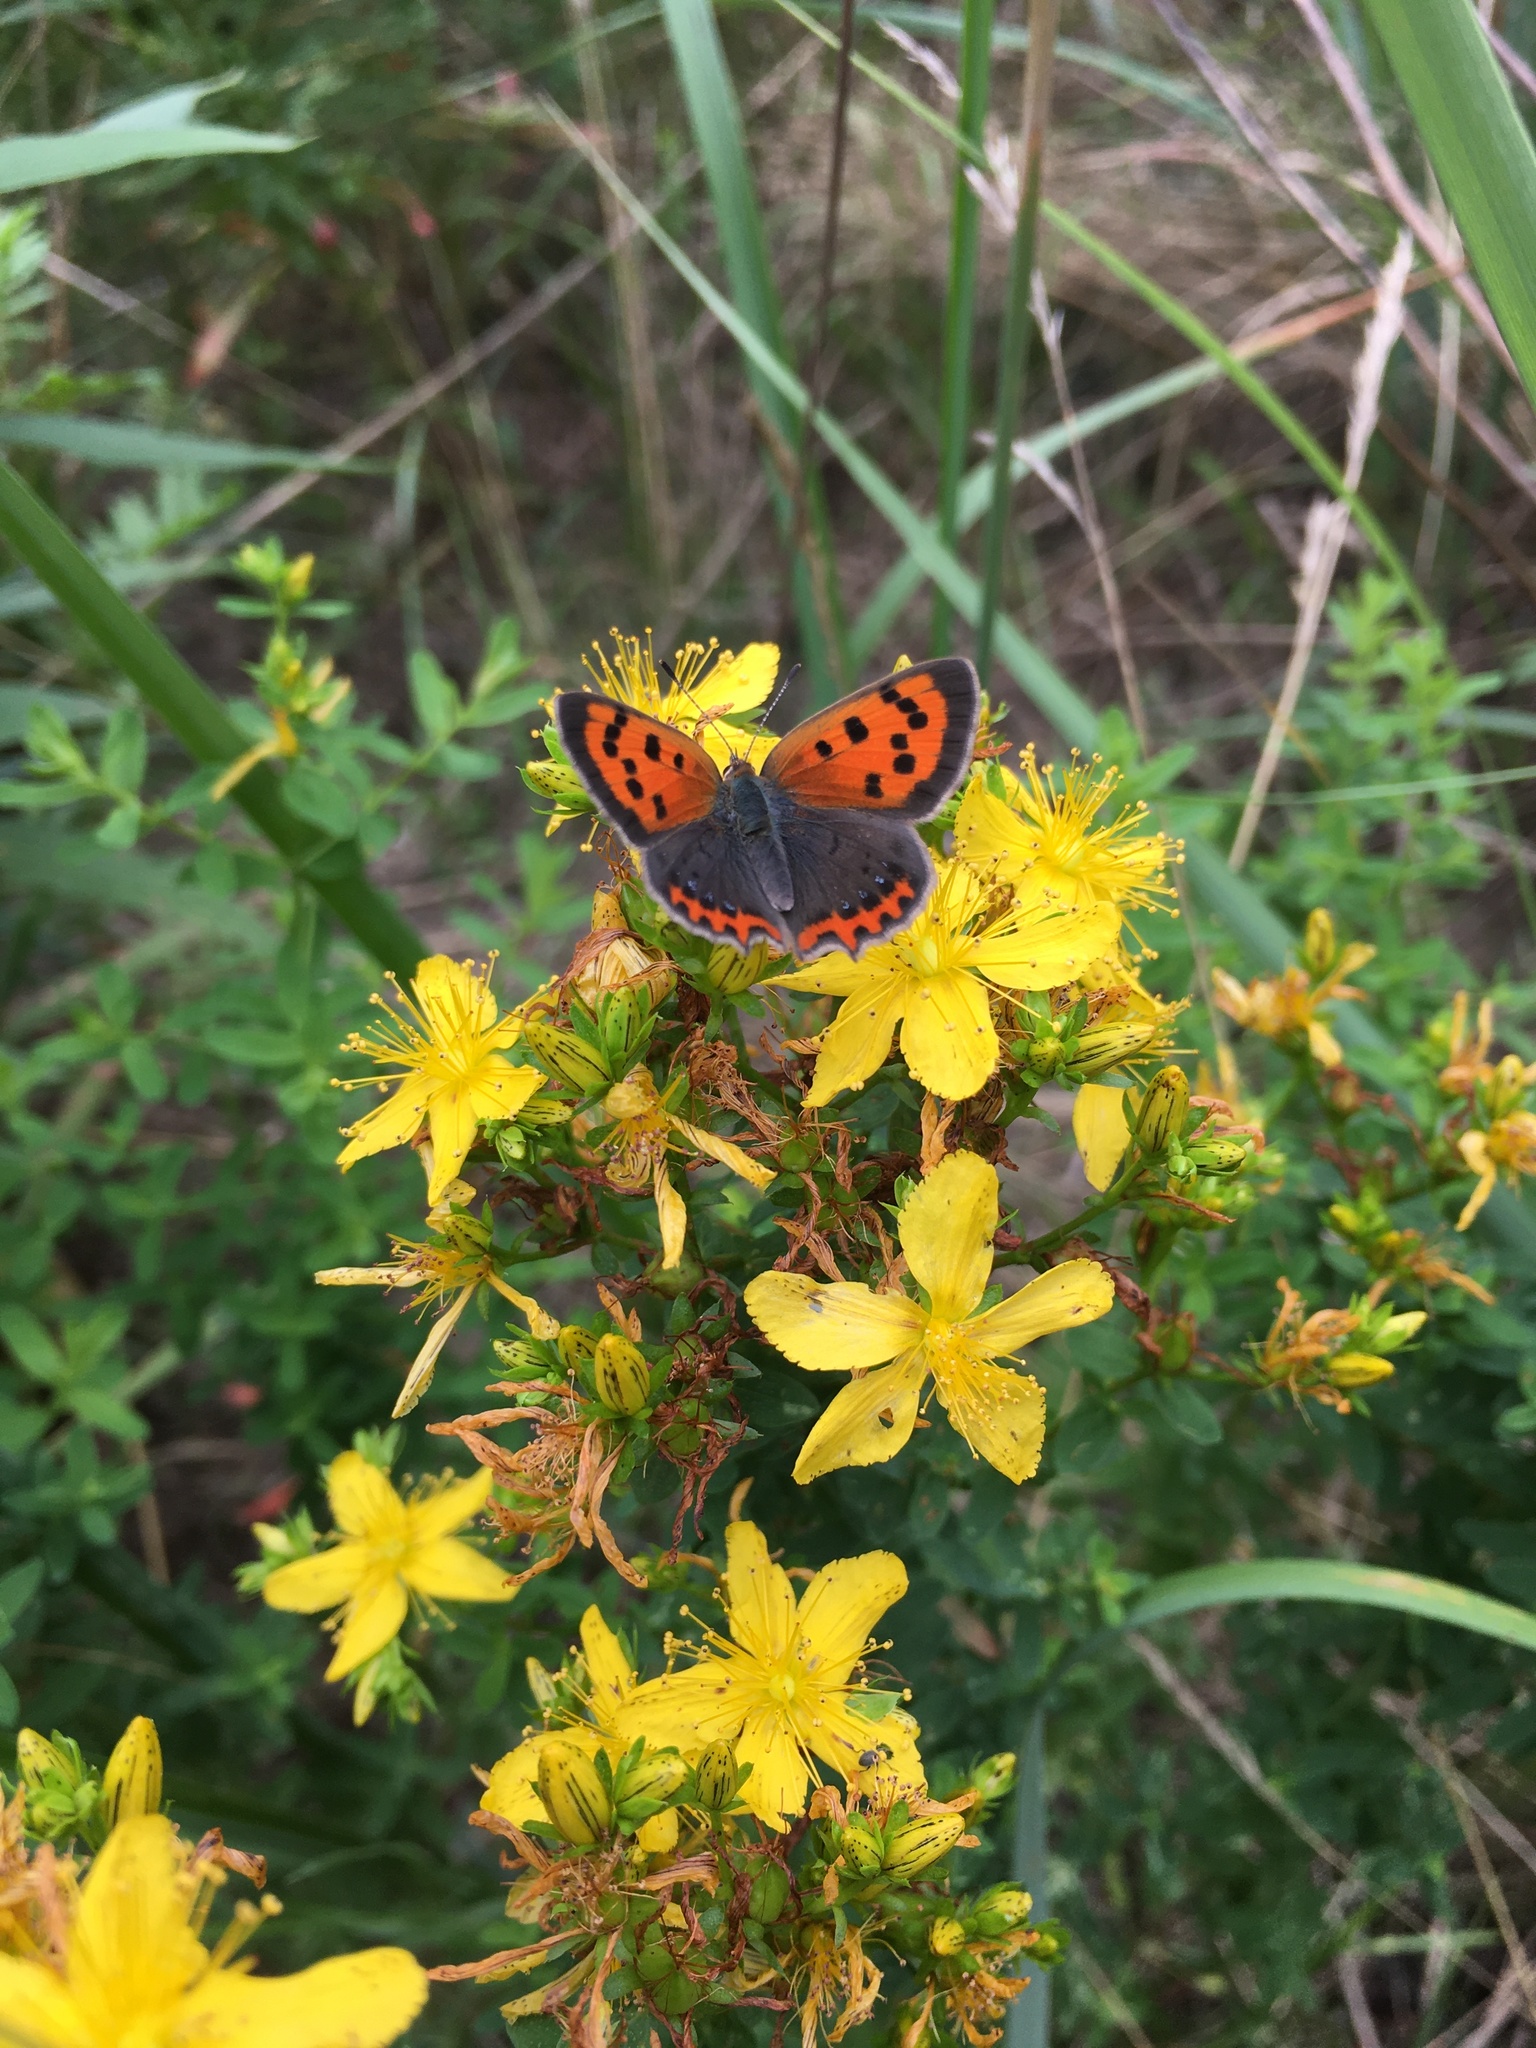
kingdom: Animalia
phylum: Arthropoda
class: Insecta
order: Lepidoptera
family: Lycaenidae
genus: Lycaena
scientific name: Lycaena phlaeas
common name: Small copper
